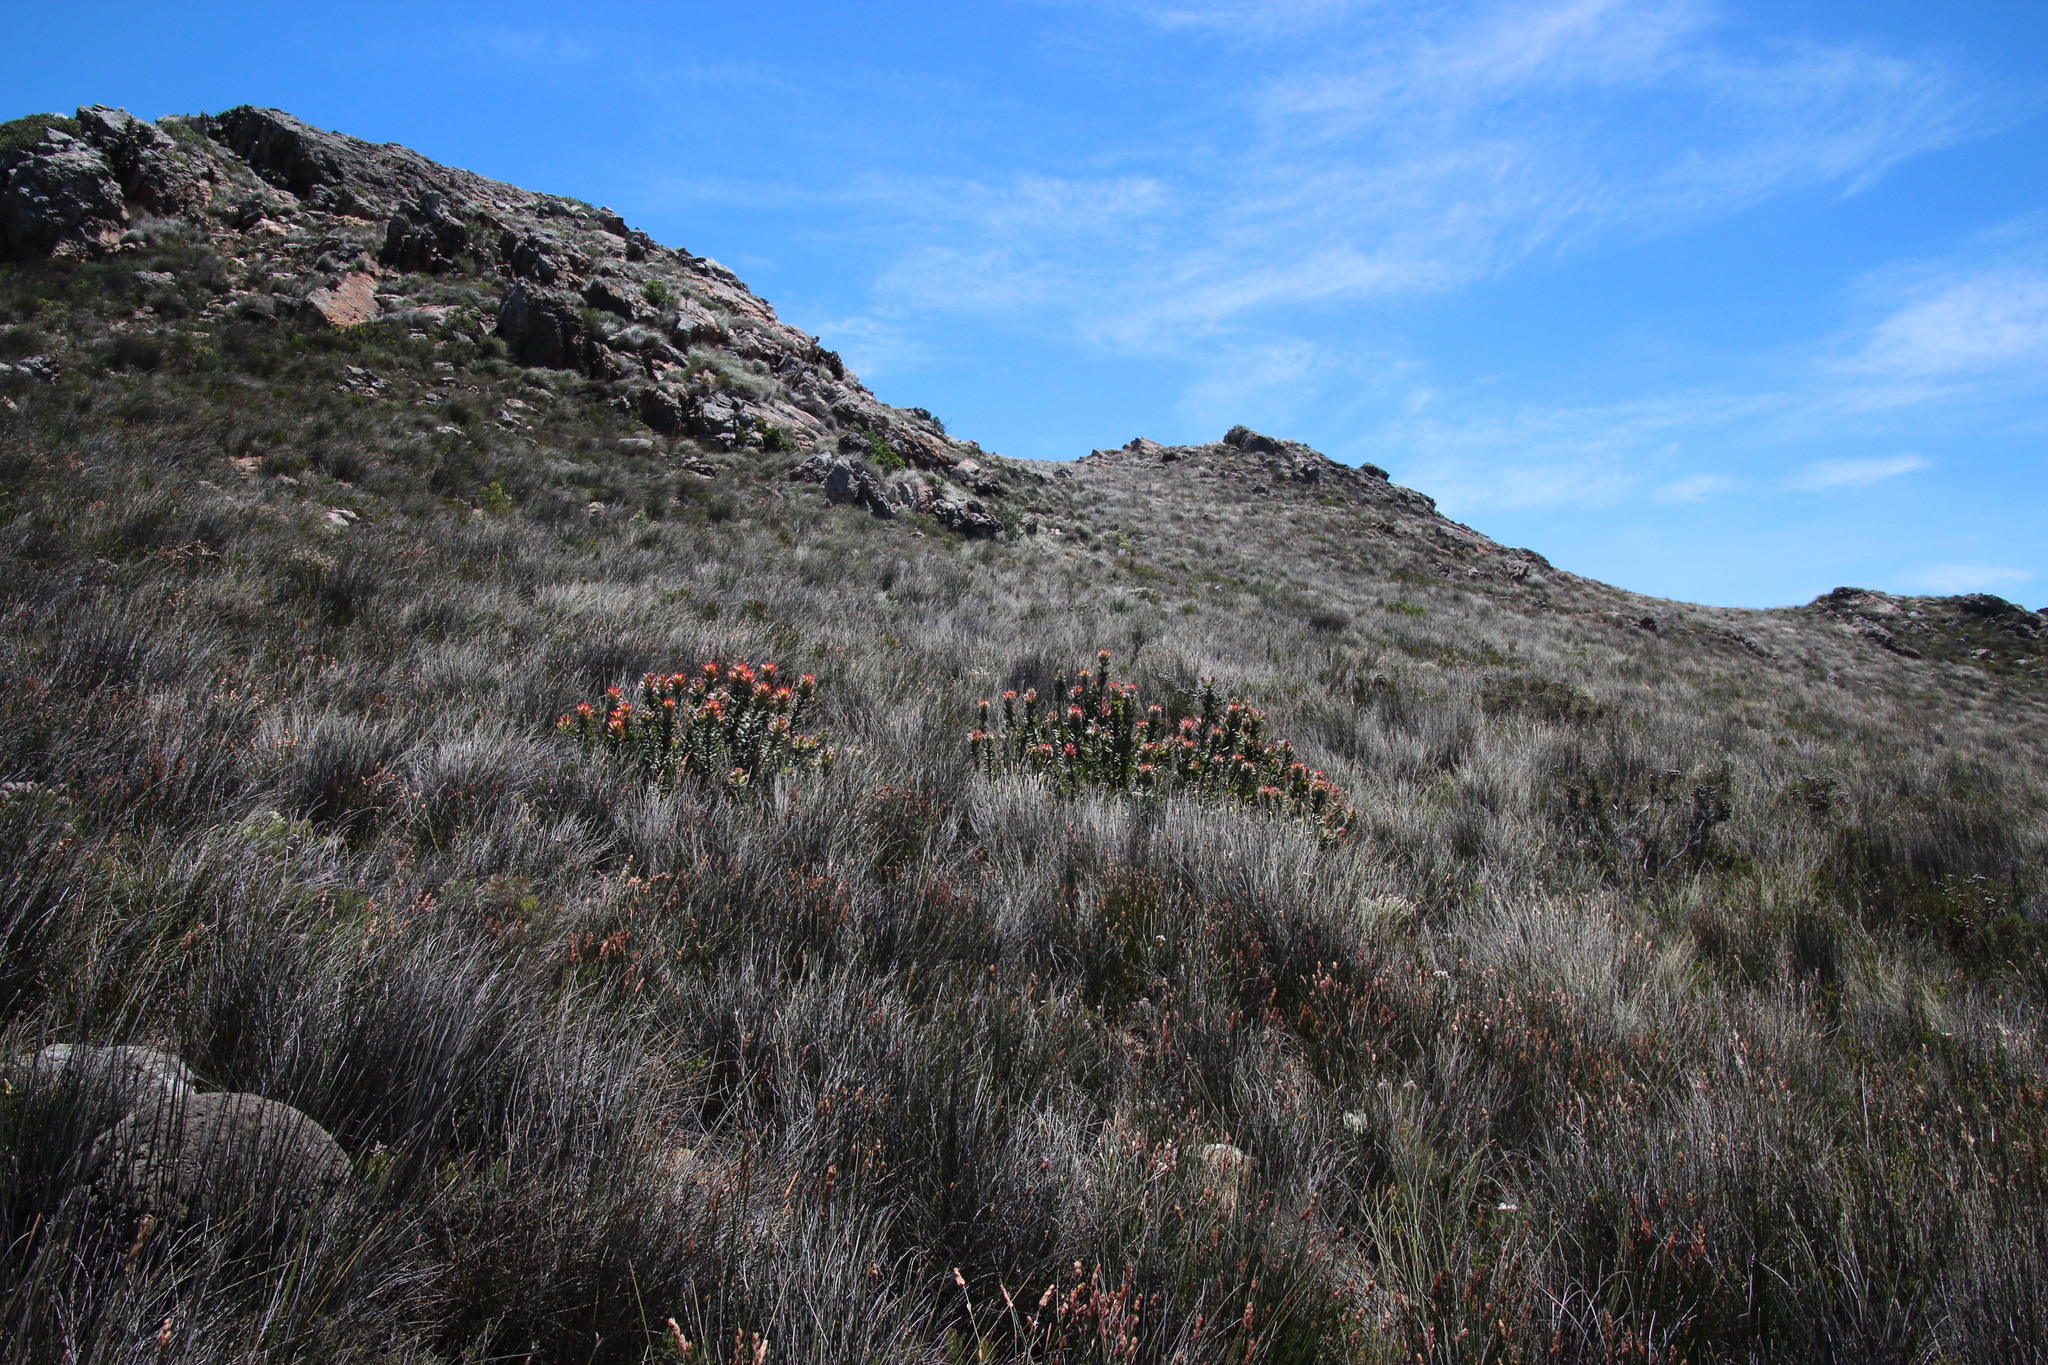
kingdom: Plantae
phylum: Tracheophyta
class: Magnoliopsida
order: Proteales
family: Proteaceae
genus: Mimetes
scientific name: Mimetes cucullatus
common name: Common pagoda
